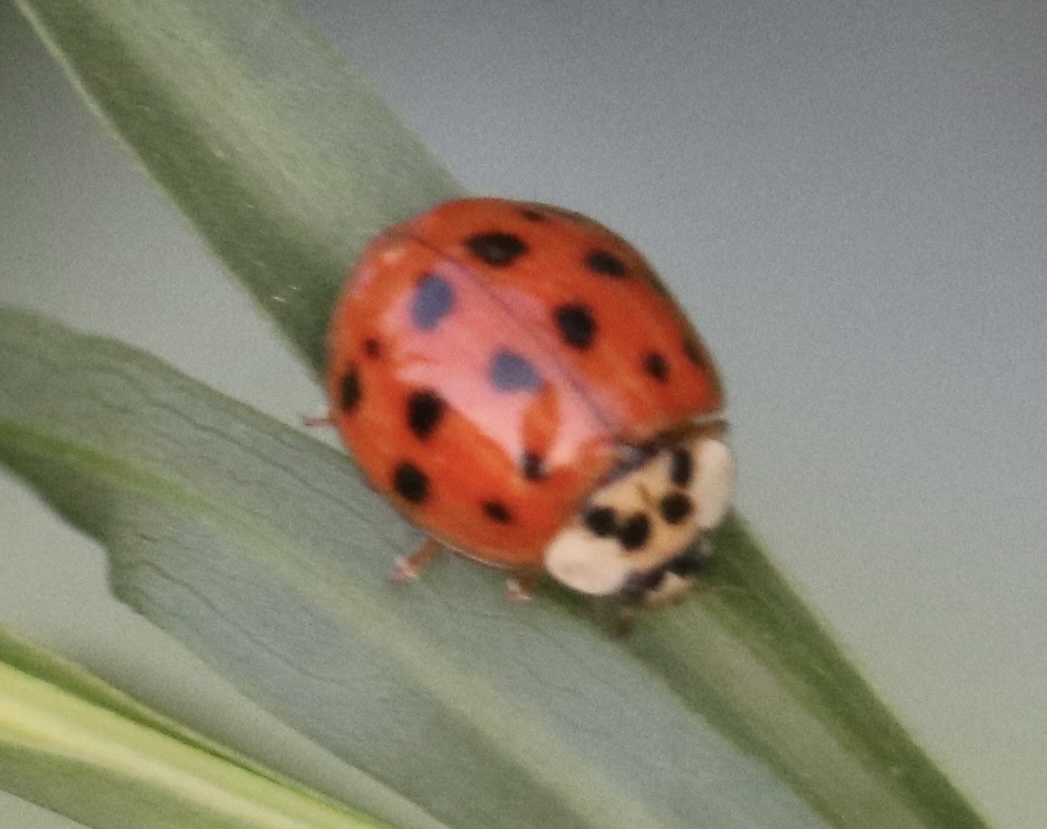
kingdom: Animalia
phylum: Arthropoda
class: Insecta
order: Coleoptera
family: Coccinellidae
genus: Harmonia
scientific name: Harmonia axyridis
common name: Harlequin ladybird
